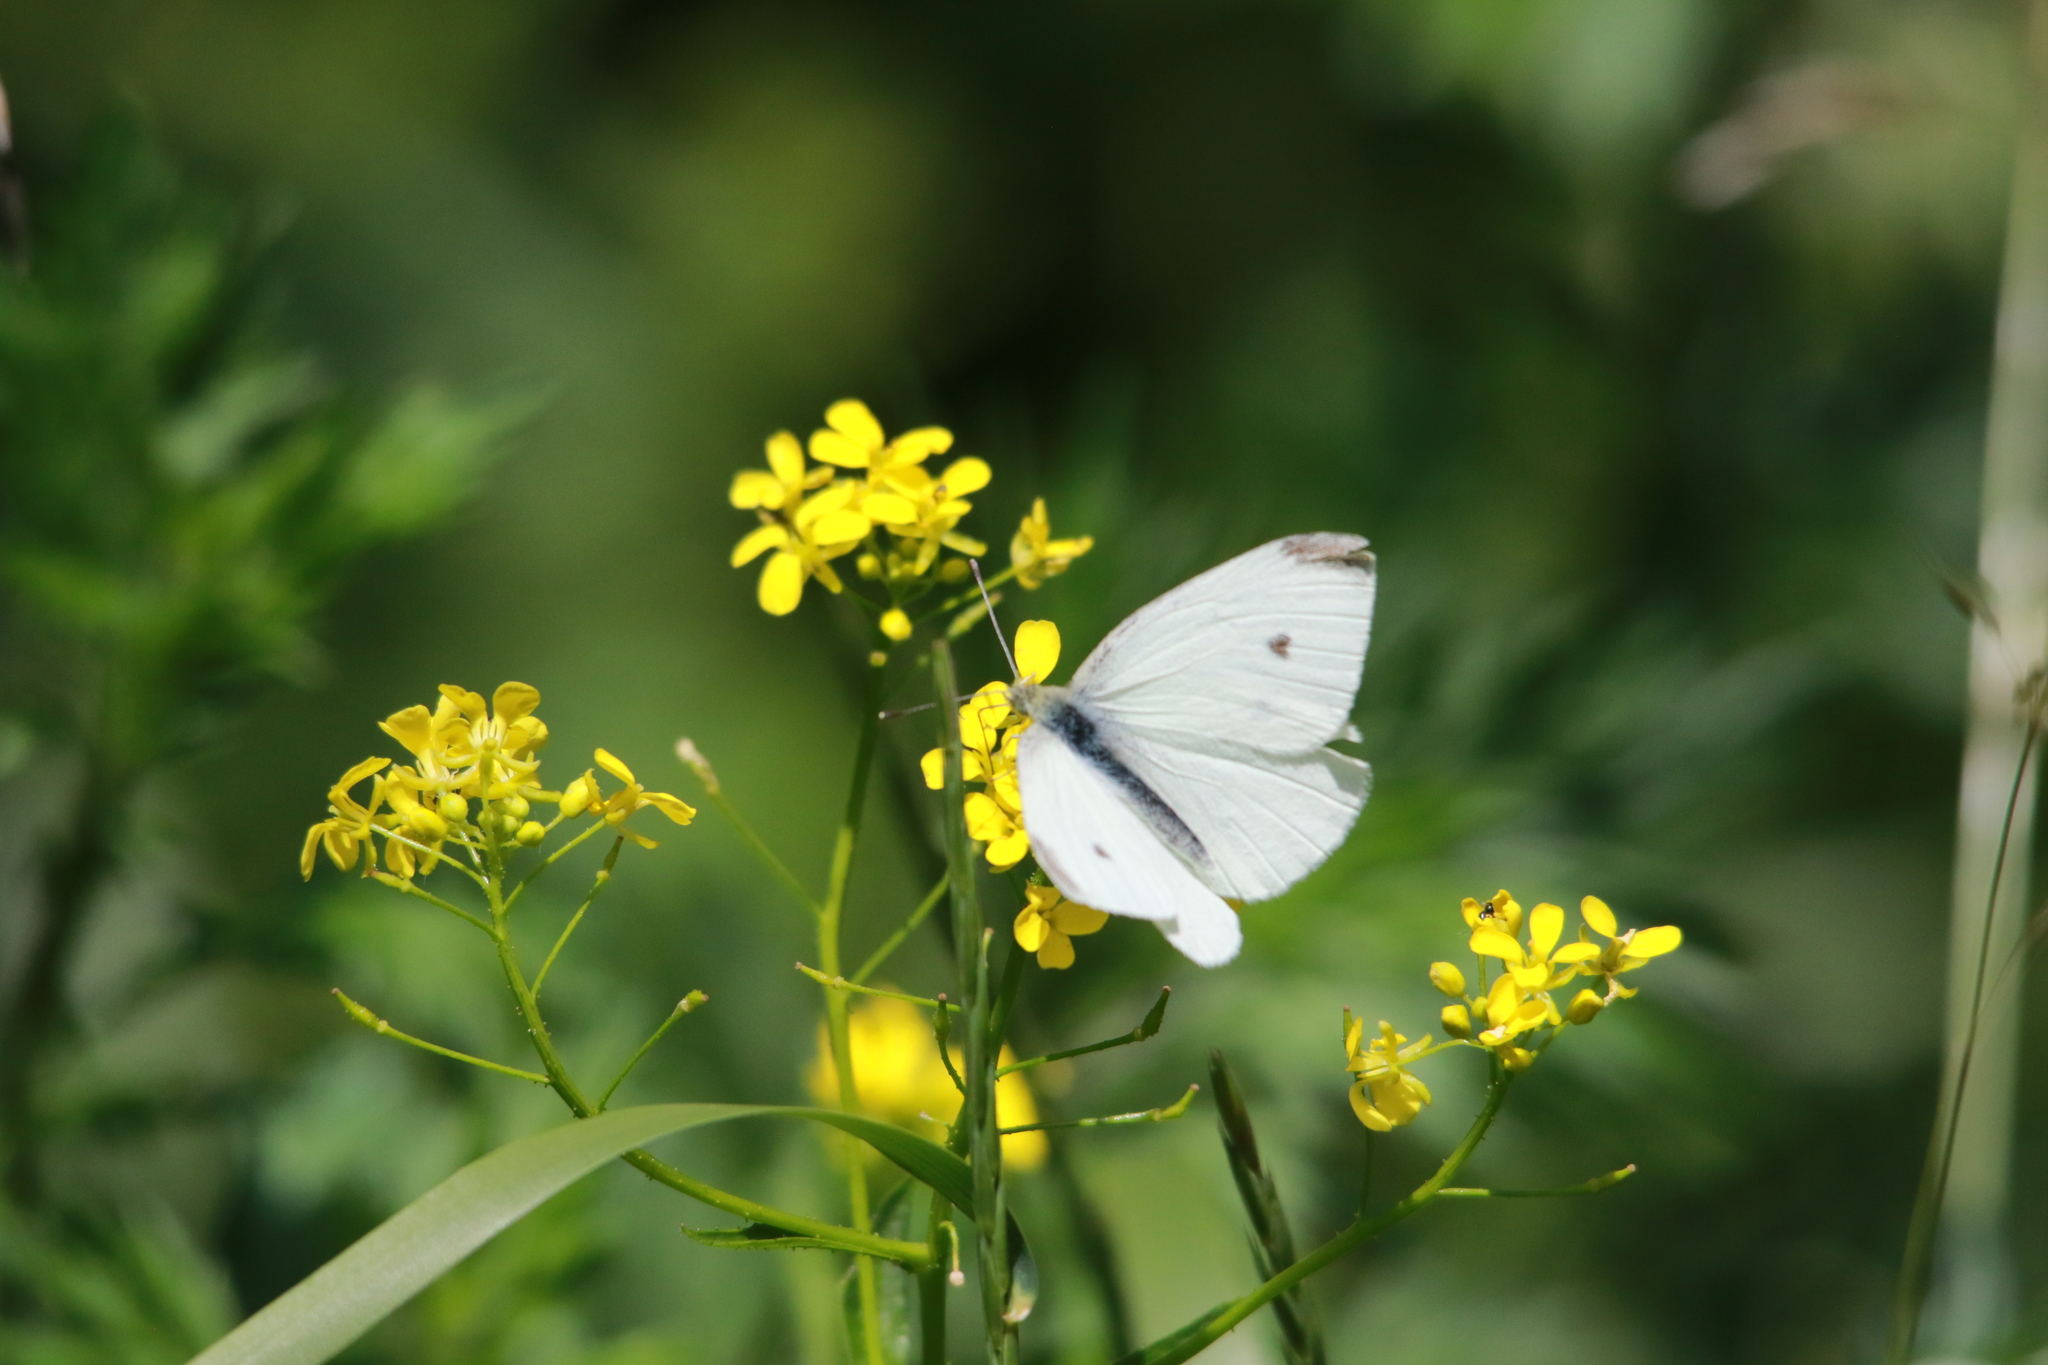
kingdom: Animalia
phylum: Arthropoda
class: Insecta
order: Lepidoptera
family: Pieridae
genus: Pieris
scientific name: Pieris rapae
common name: Small white
